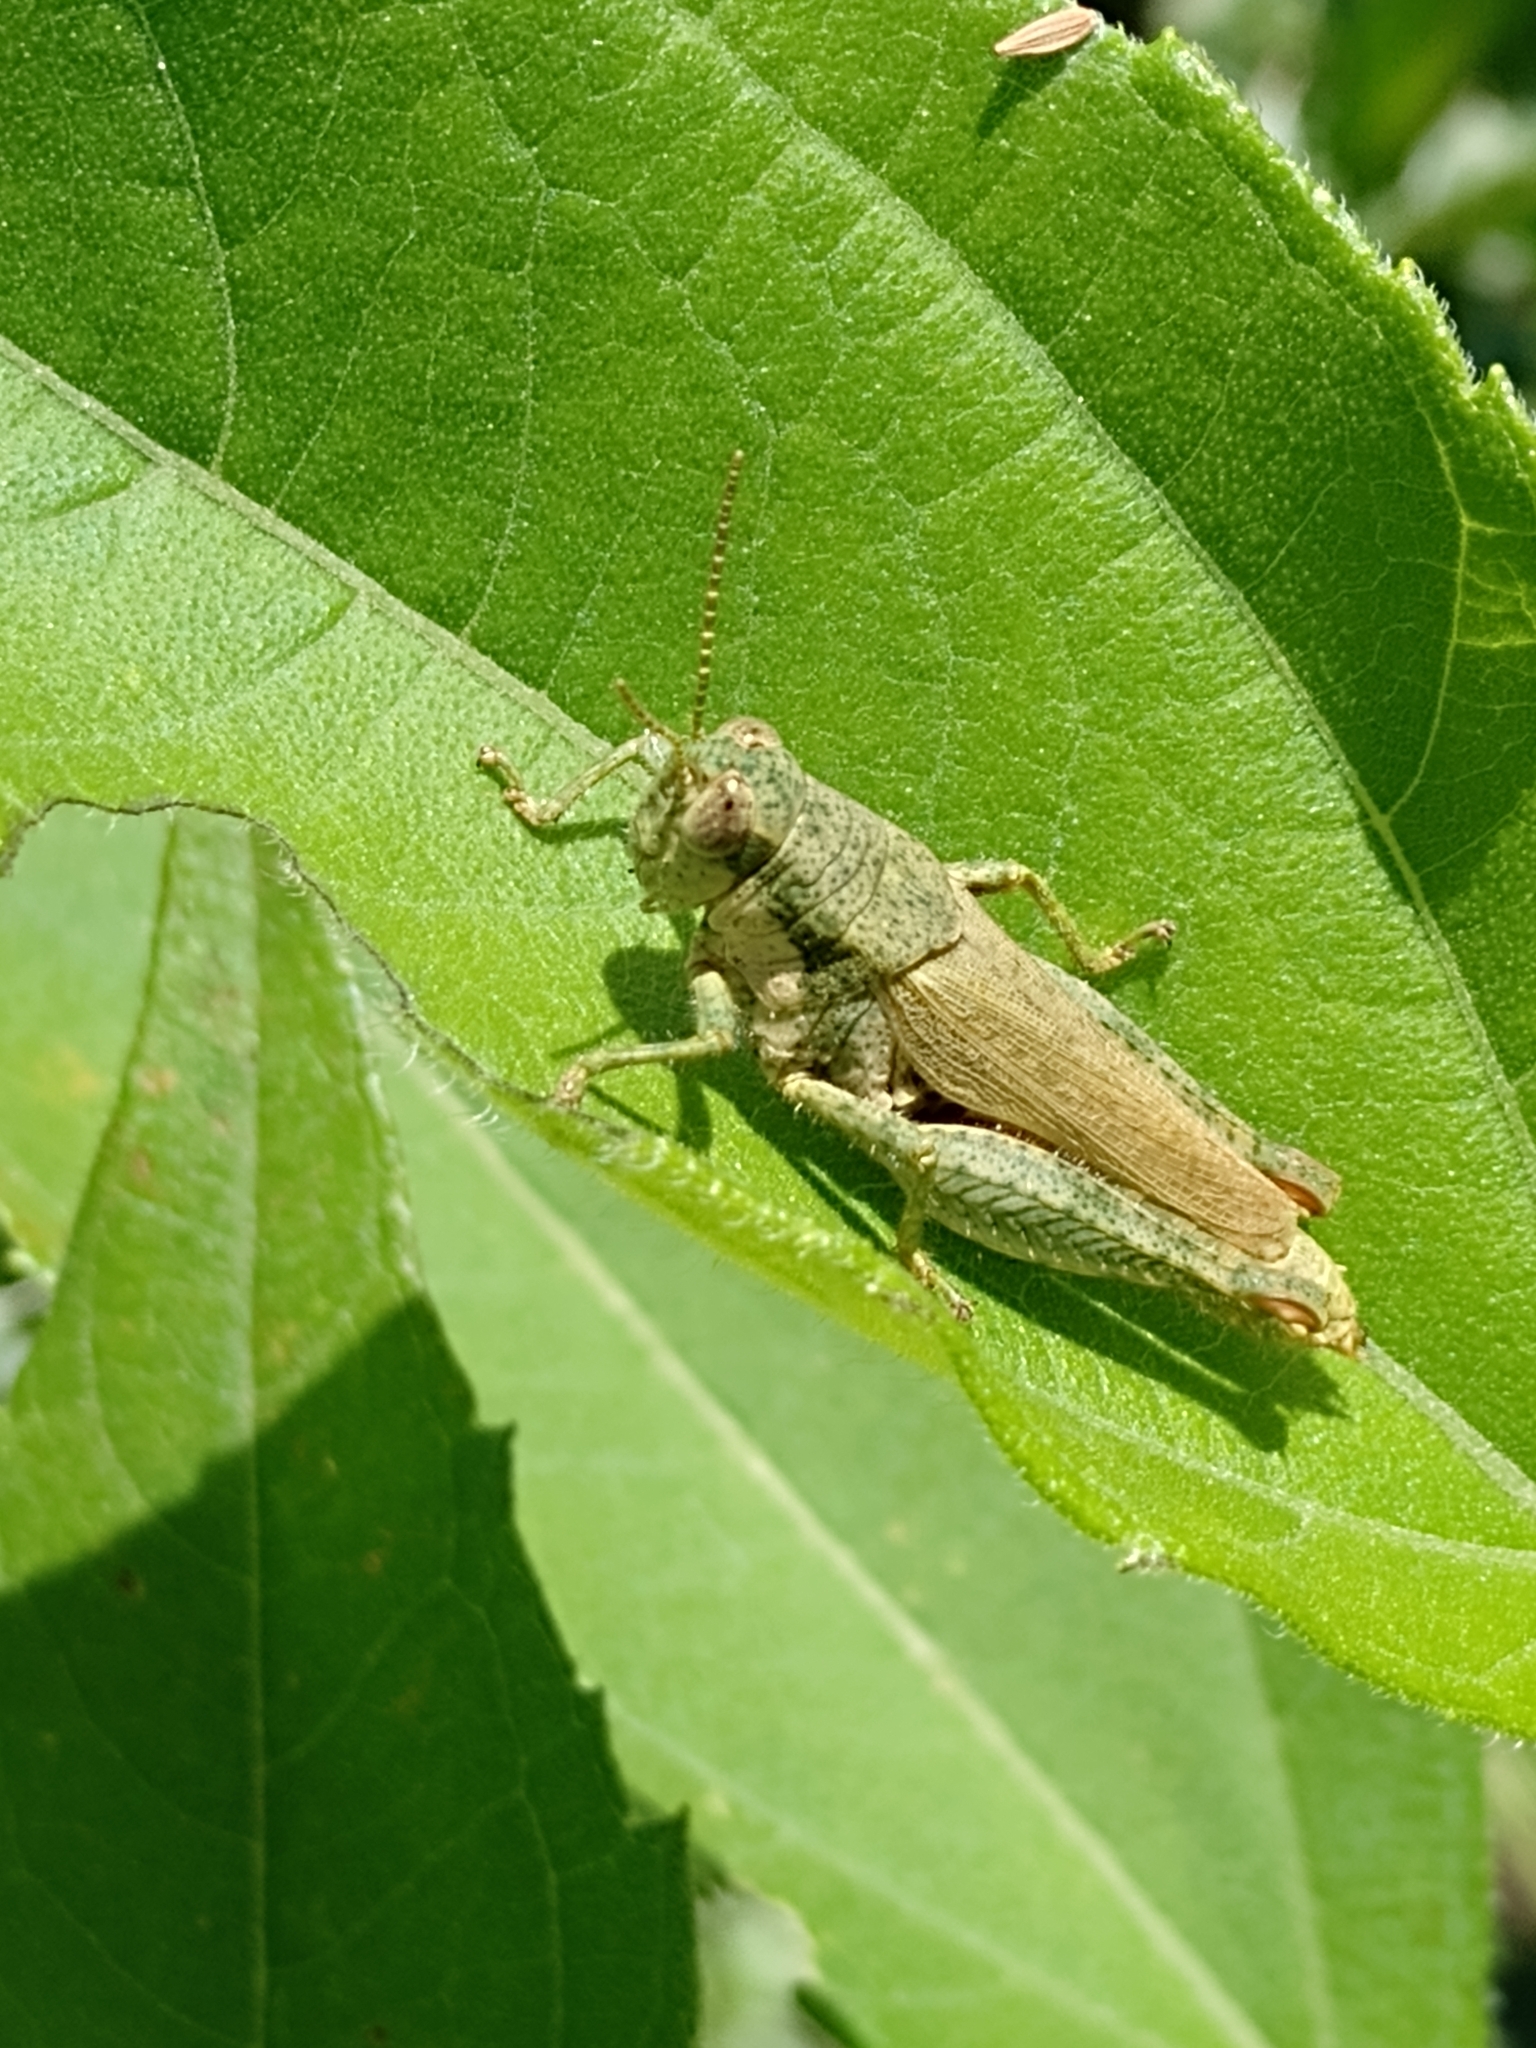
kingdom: Animalia
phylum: Arthropoda
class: Insecta
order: Orthoptera
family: Acrididae
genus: Ronderosia
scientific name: Ronderosia bergii
